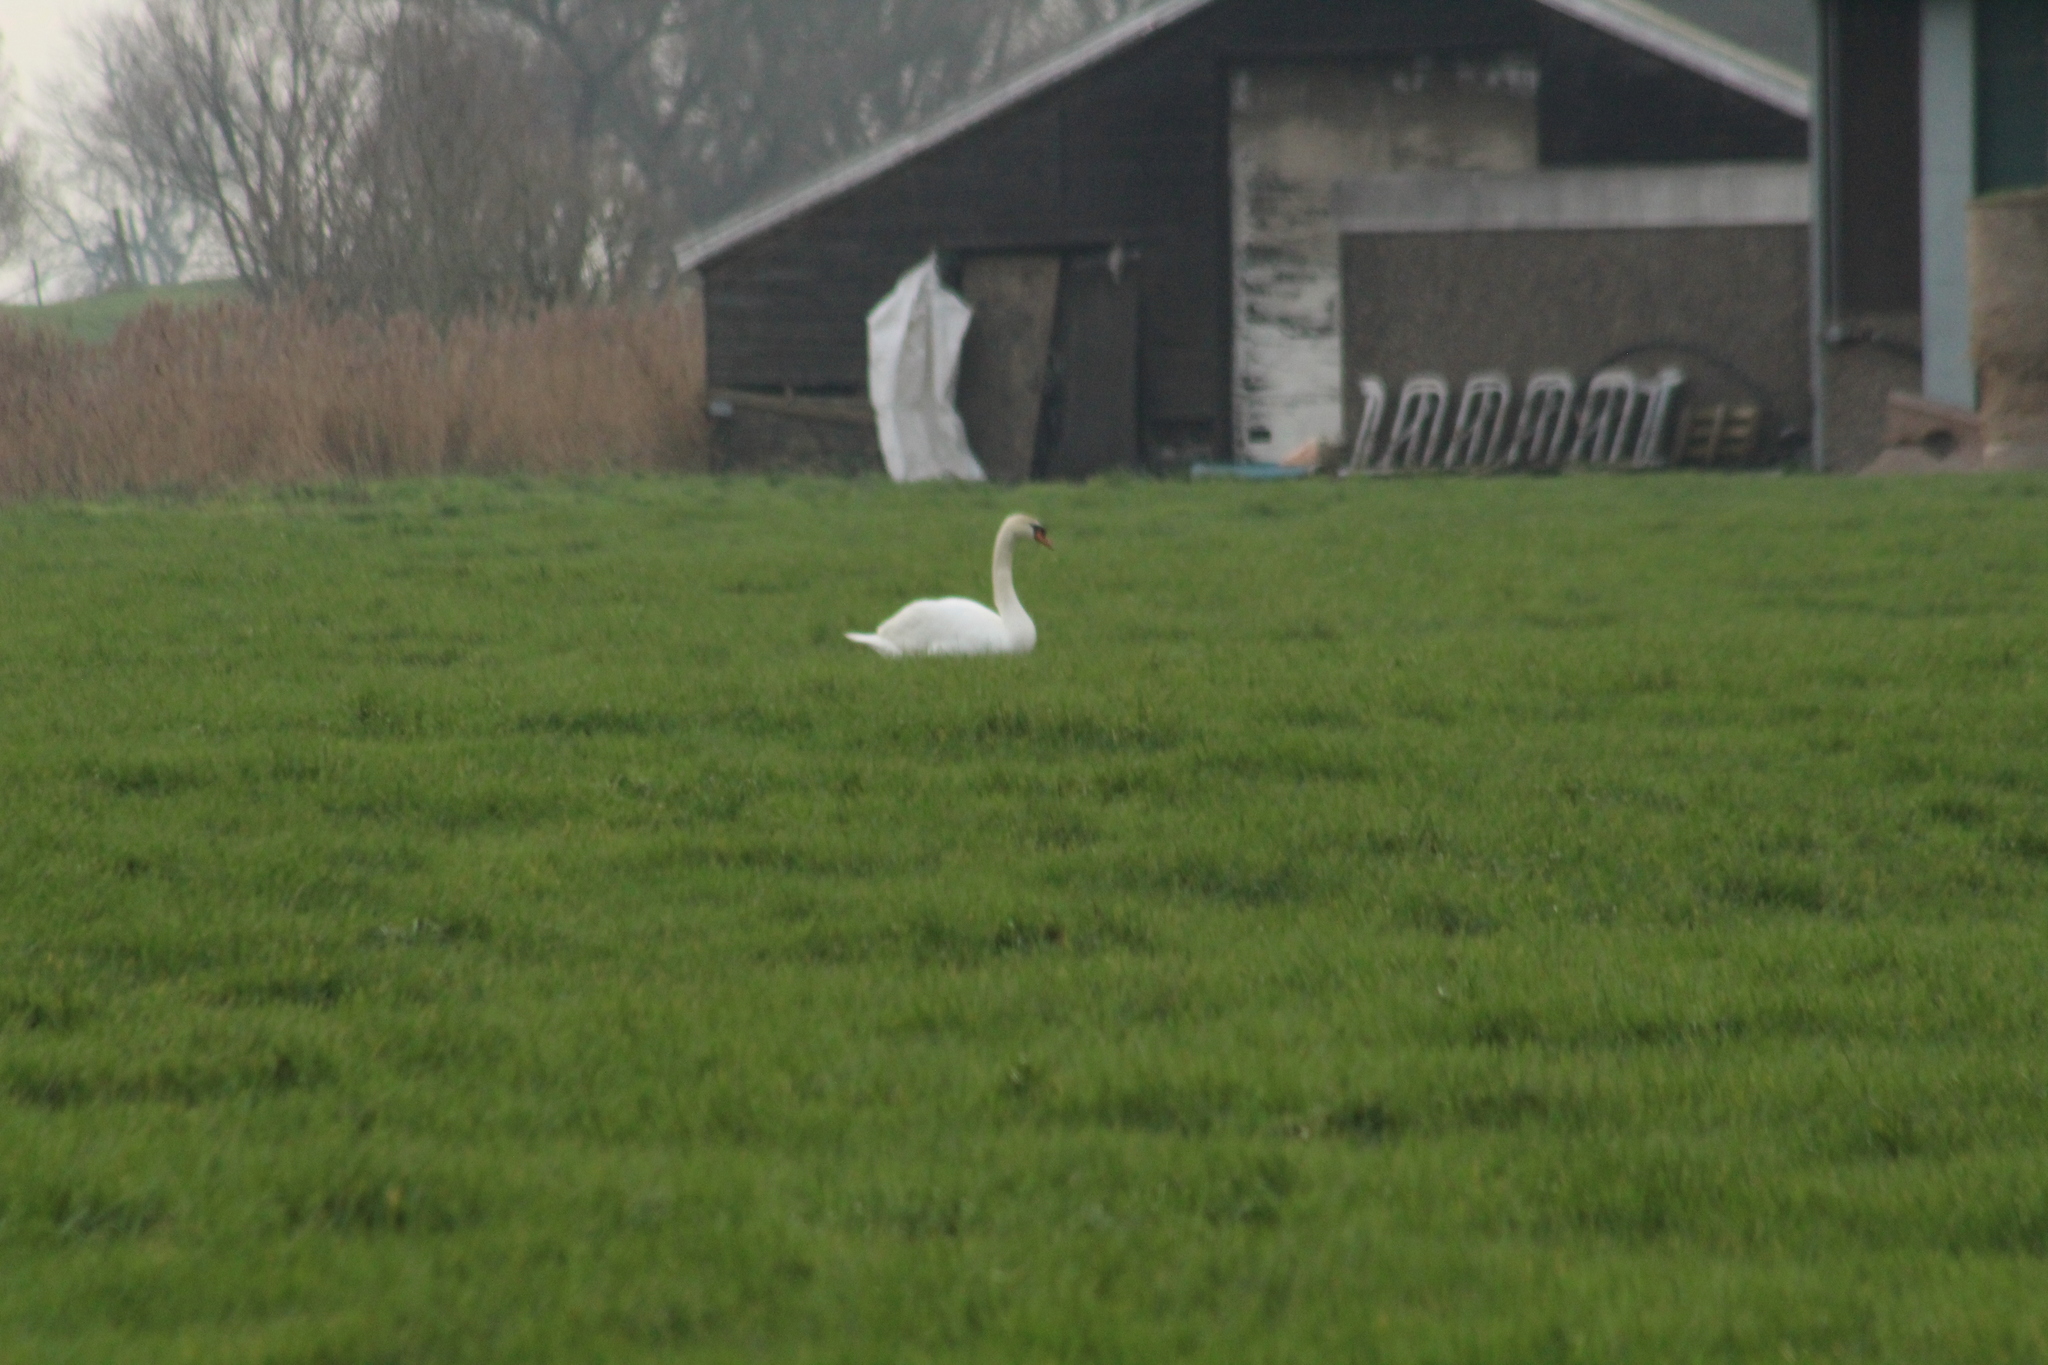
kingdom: Animalia
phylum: Chordata
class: Aves
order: Anseriformes
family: Anatidae
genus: Cygnus
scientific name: Cygnus olor
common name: Mute swan
